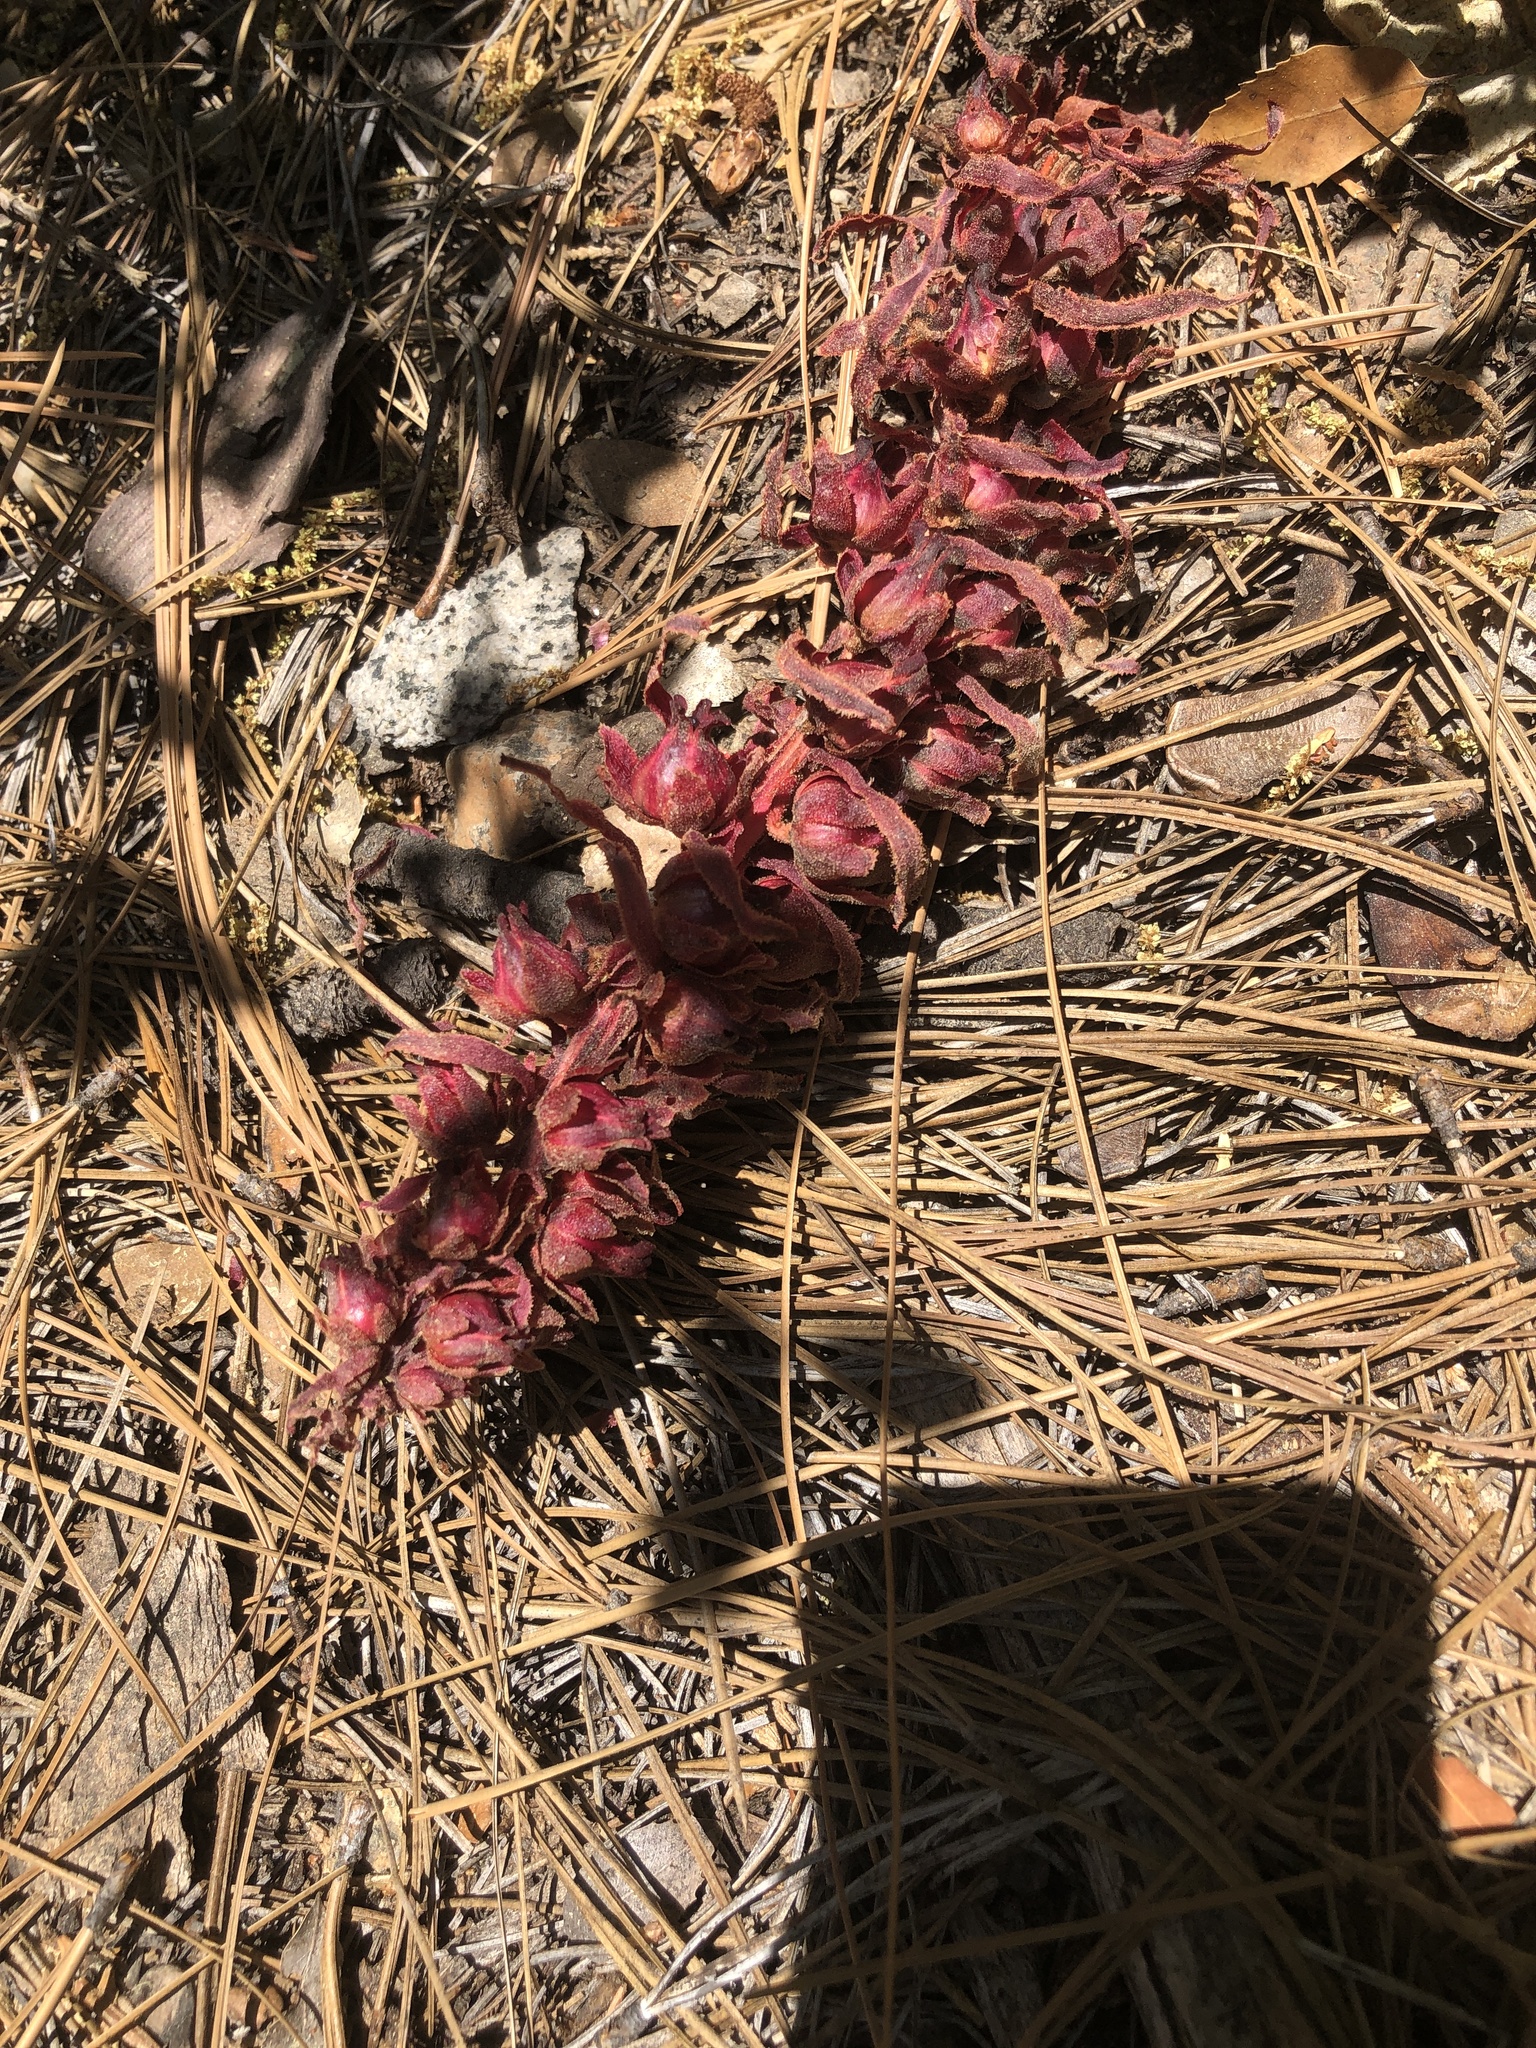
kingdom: Plantae
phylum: Tracheophyta
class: Magnoliopsida
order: Ericales
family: Ericaceae
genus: Sarcodes
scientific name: Sarcodes sanguinea
